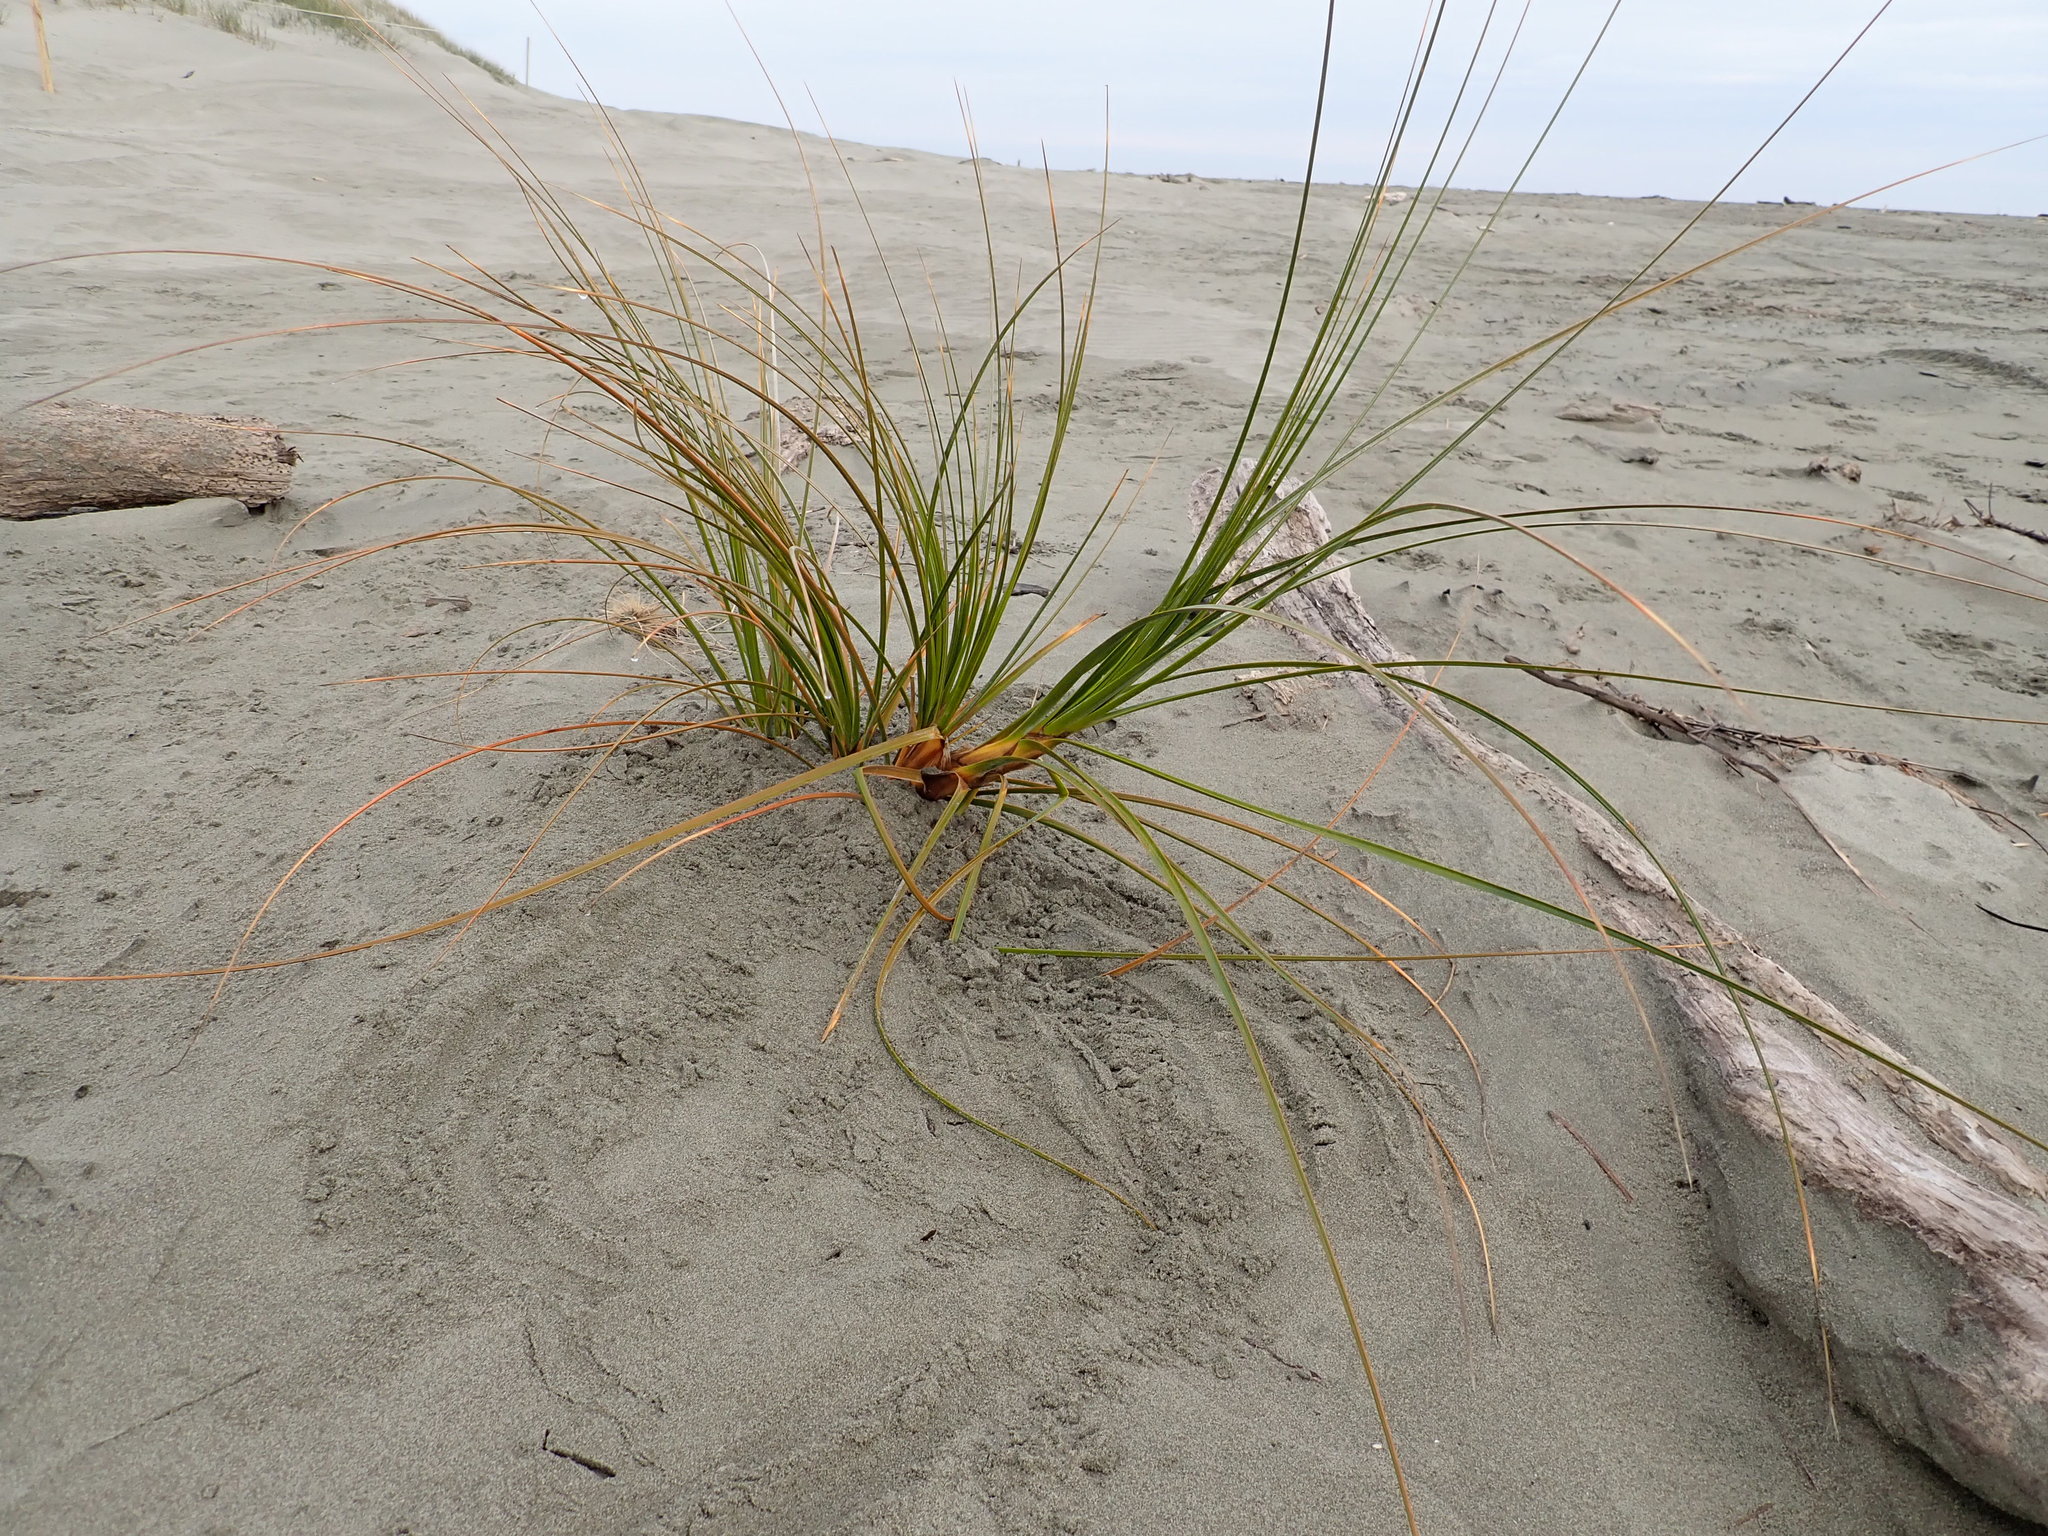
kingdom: Plantae
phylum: Tracheophyta
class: Liliopsida
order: Poales
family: Cyperaceae
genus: Ficinia
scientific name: Ficinia spiralis
